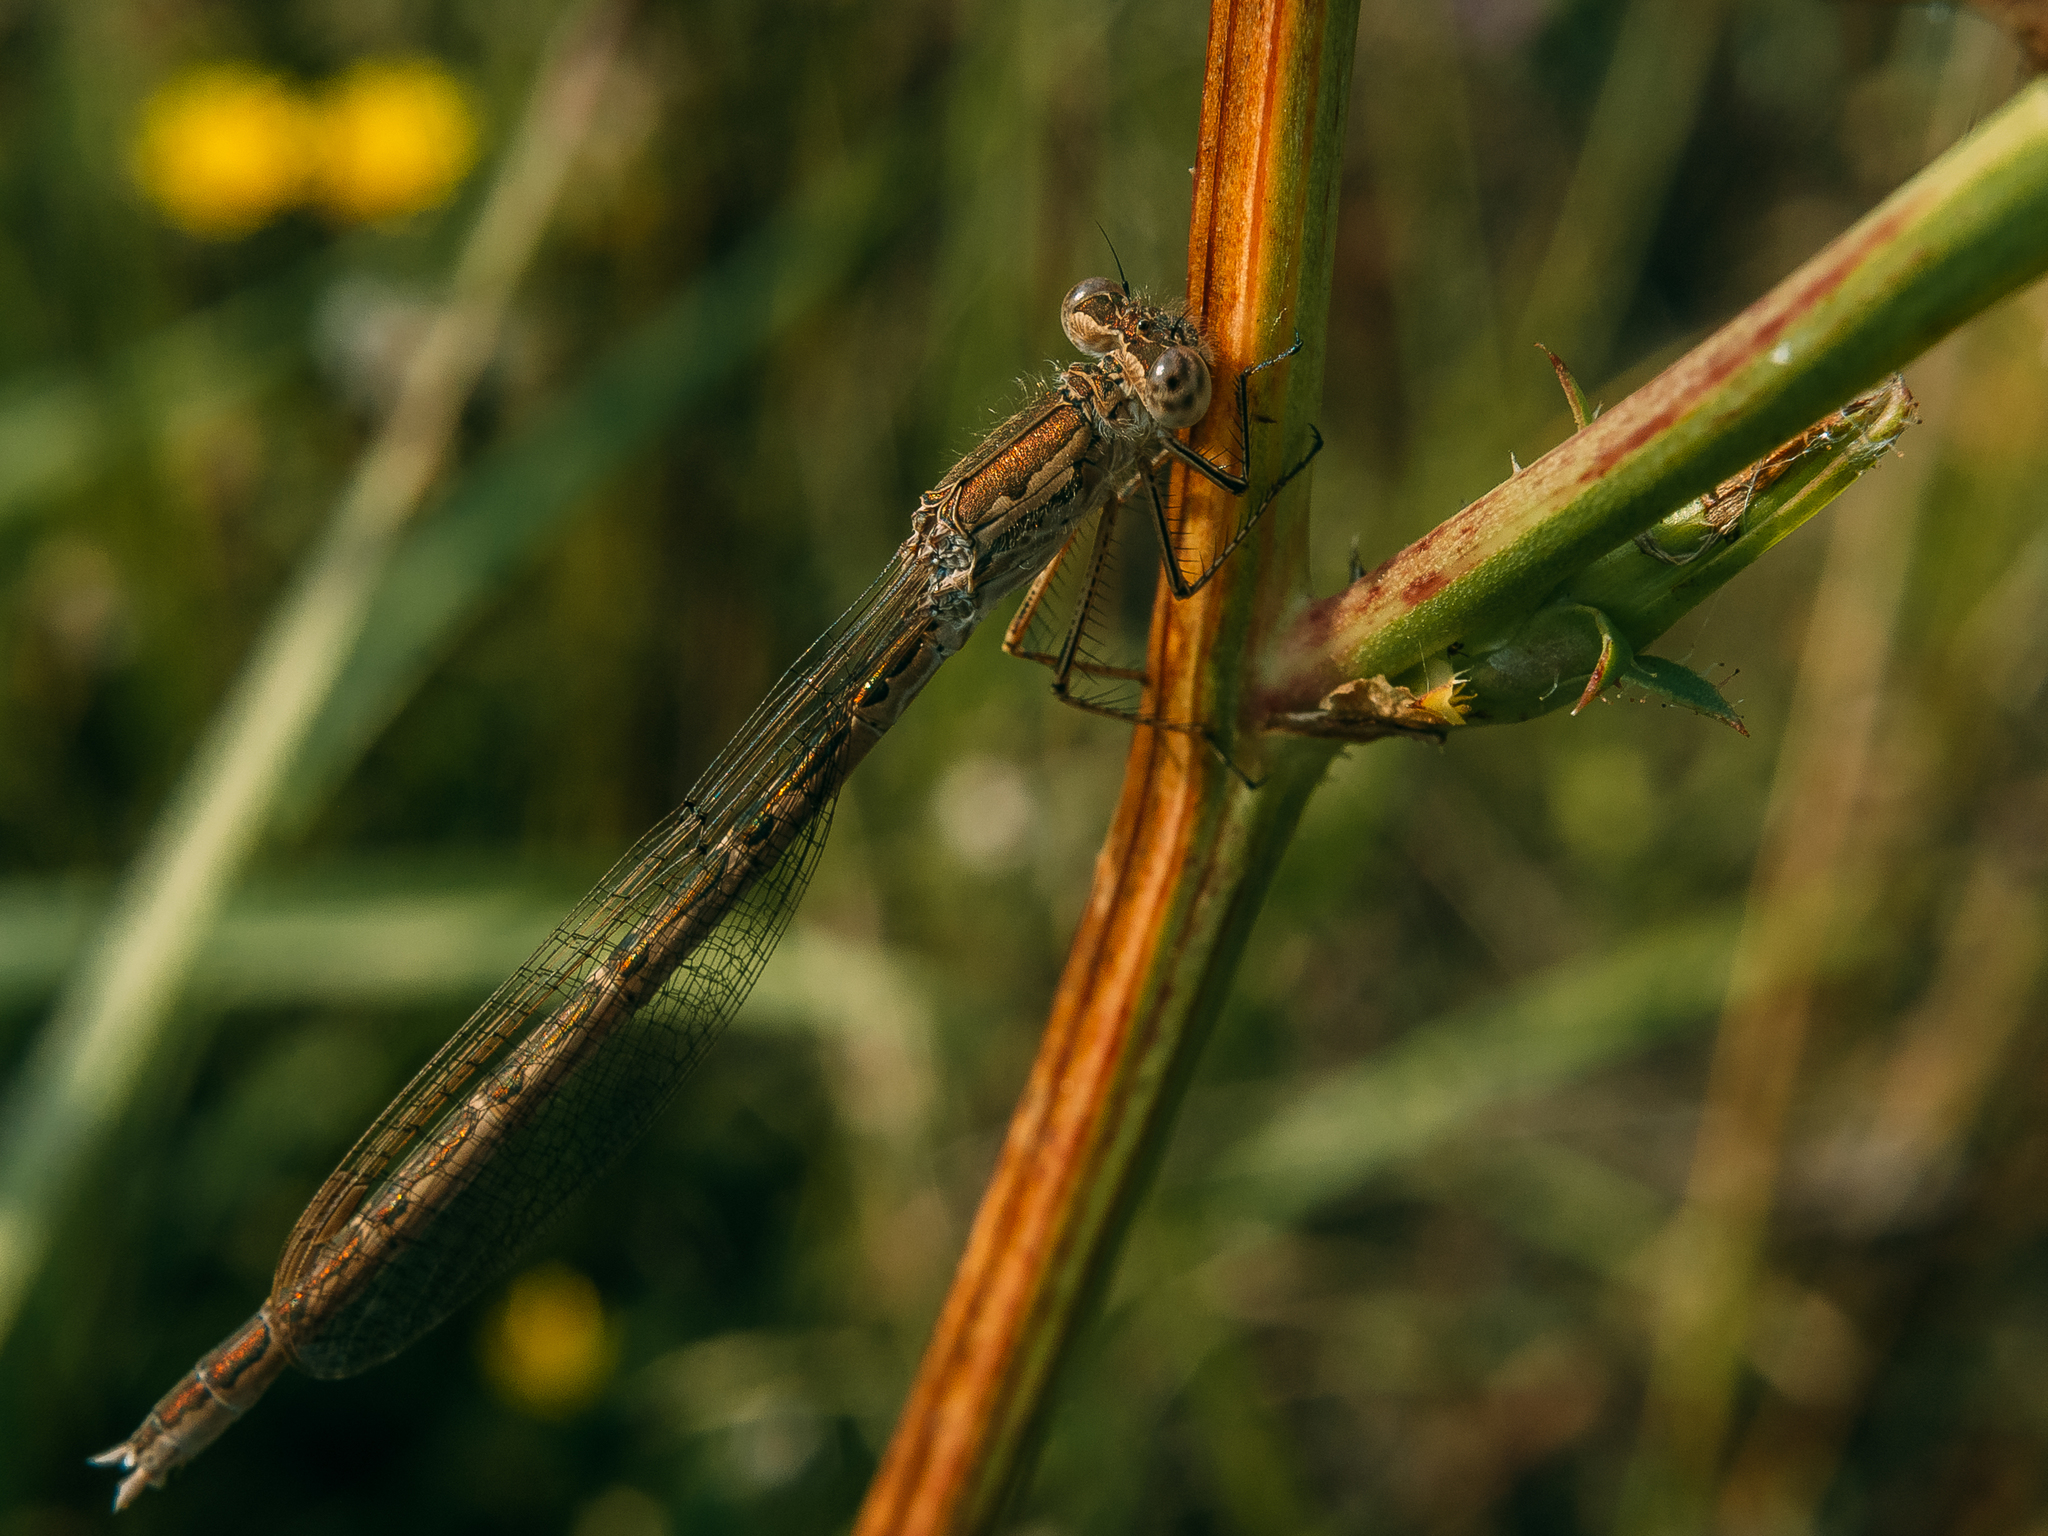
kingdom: Animalia
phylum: Arthropoda
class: Insecta
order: Odonata
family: Lestidae
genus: Sympecma
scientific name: Sympecma paedisca
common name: Siberian winter damsel
